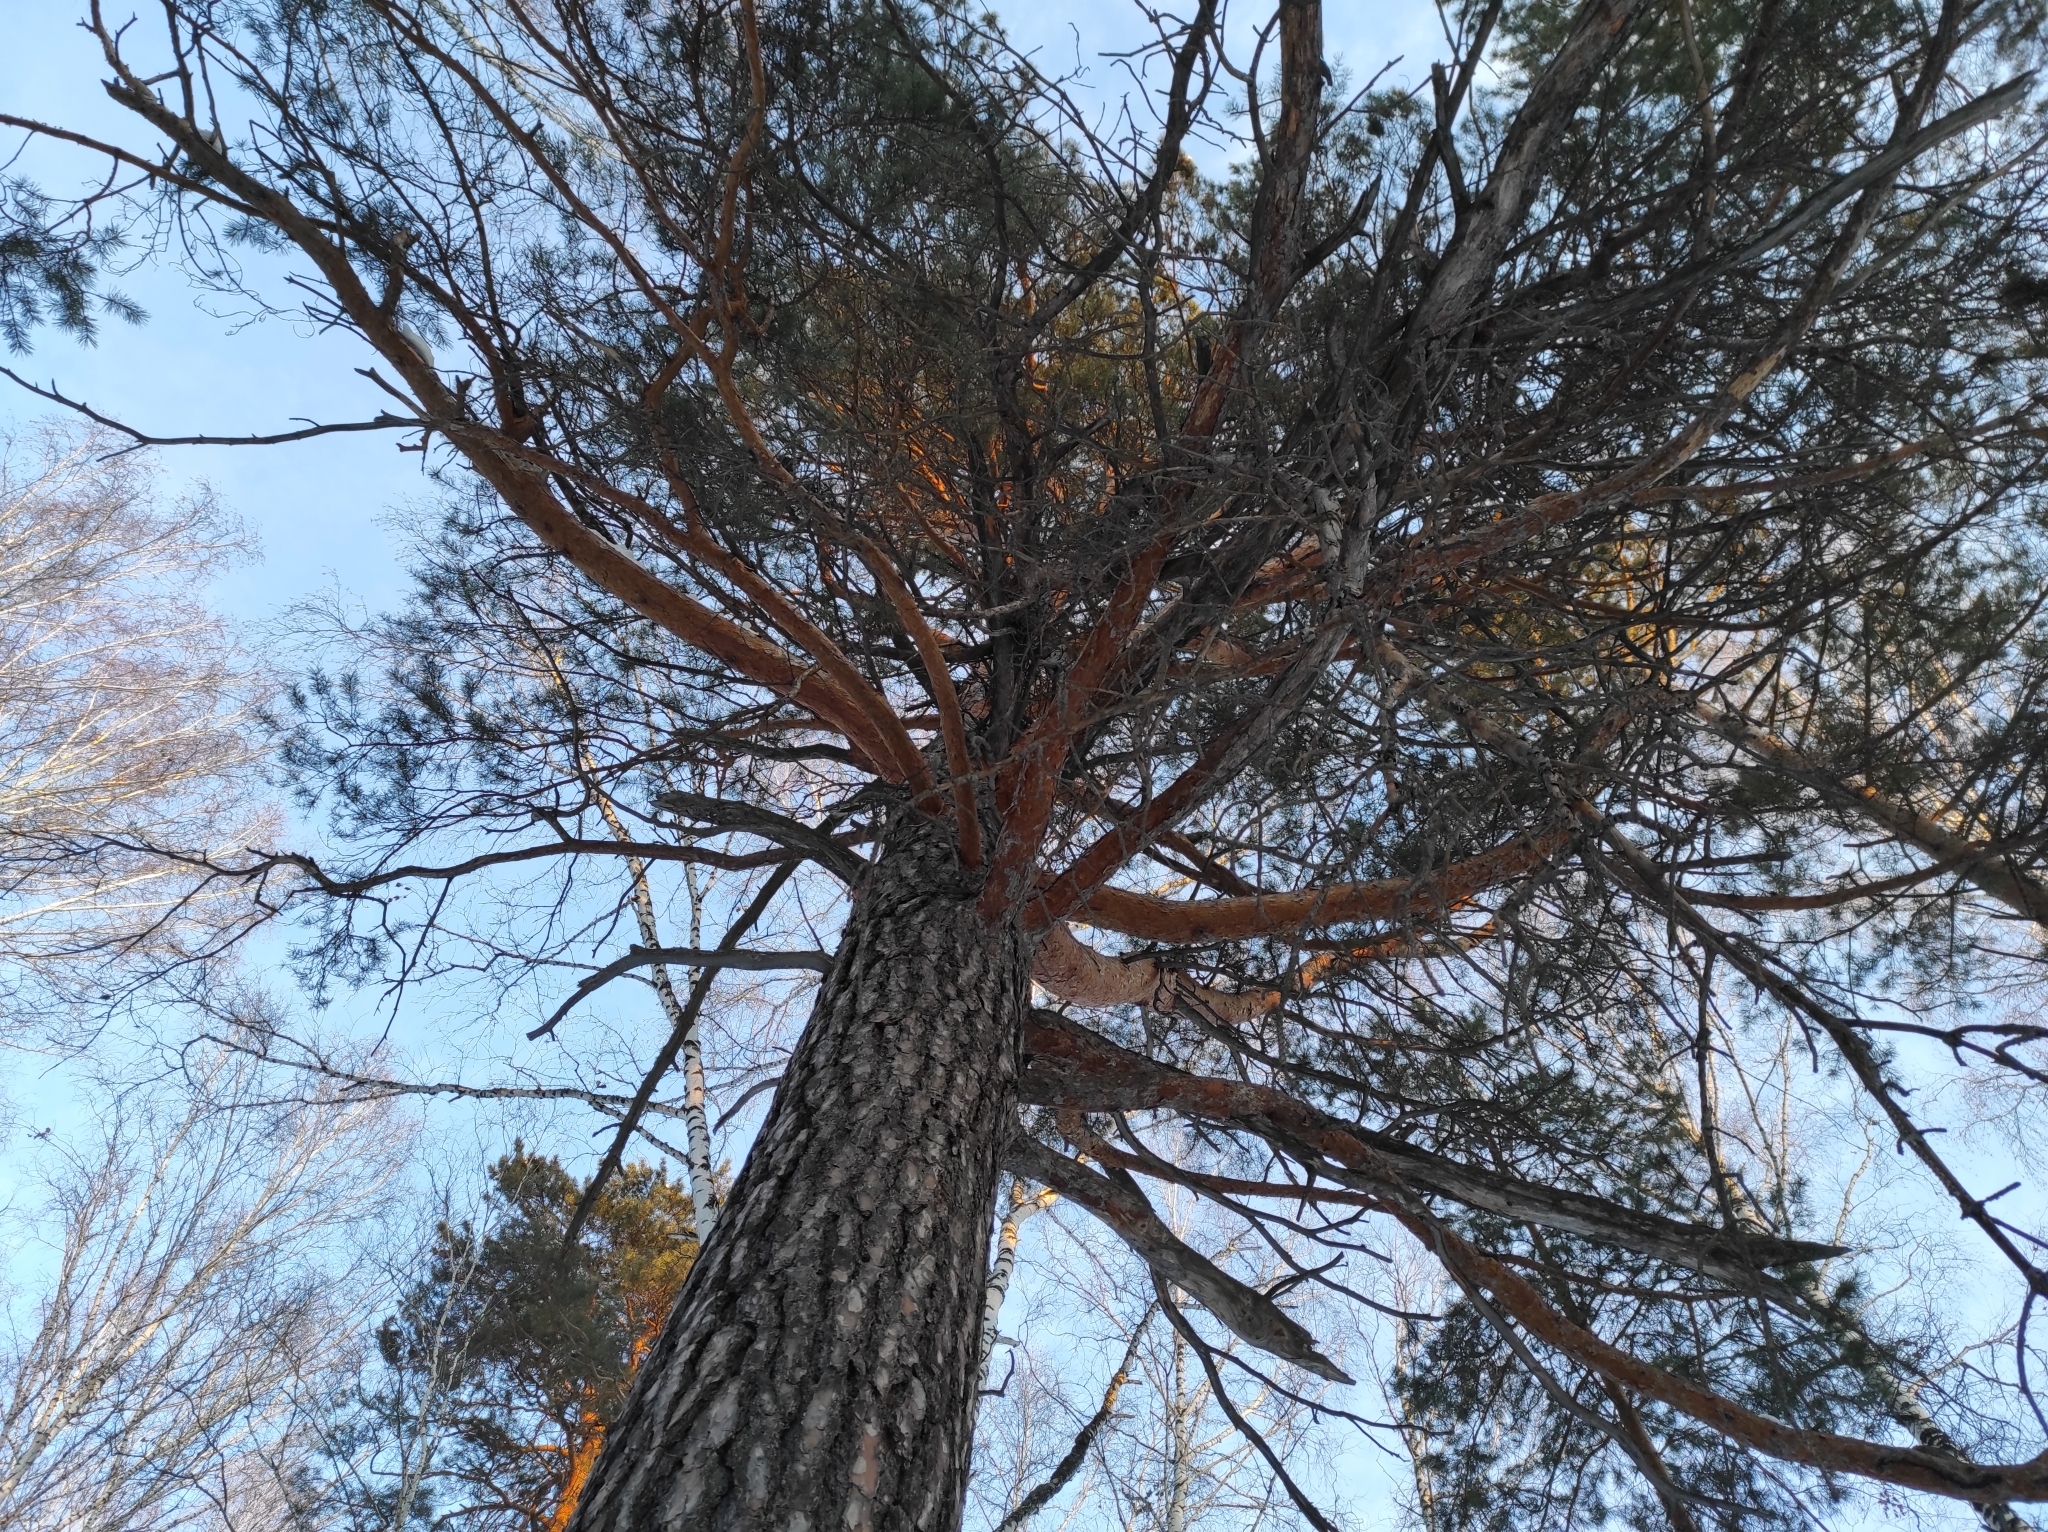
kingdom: Plantae
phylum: Tracheophyta
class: Pinopsida
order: Pinales
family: Pinaceae
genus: Pinus
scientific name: Pinus sylvestris
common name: Scots pine
